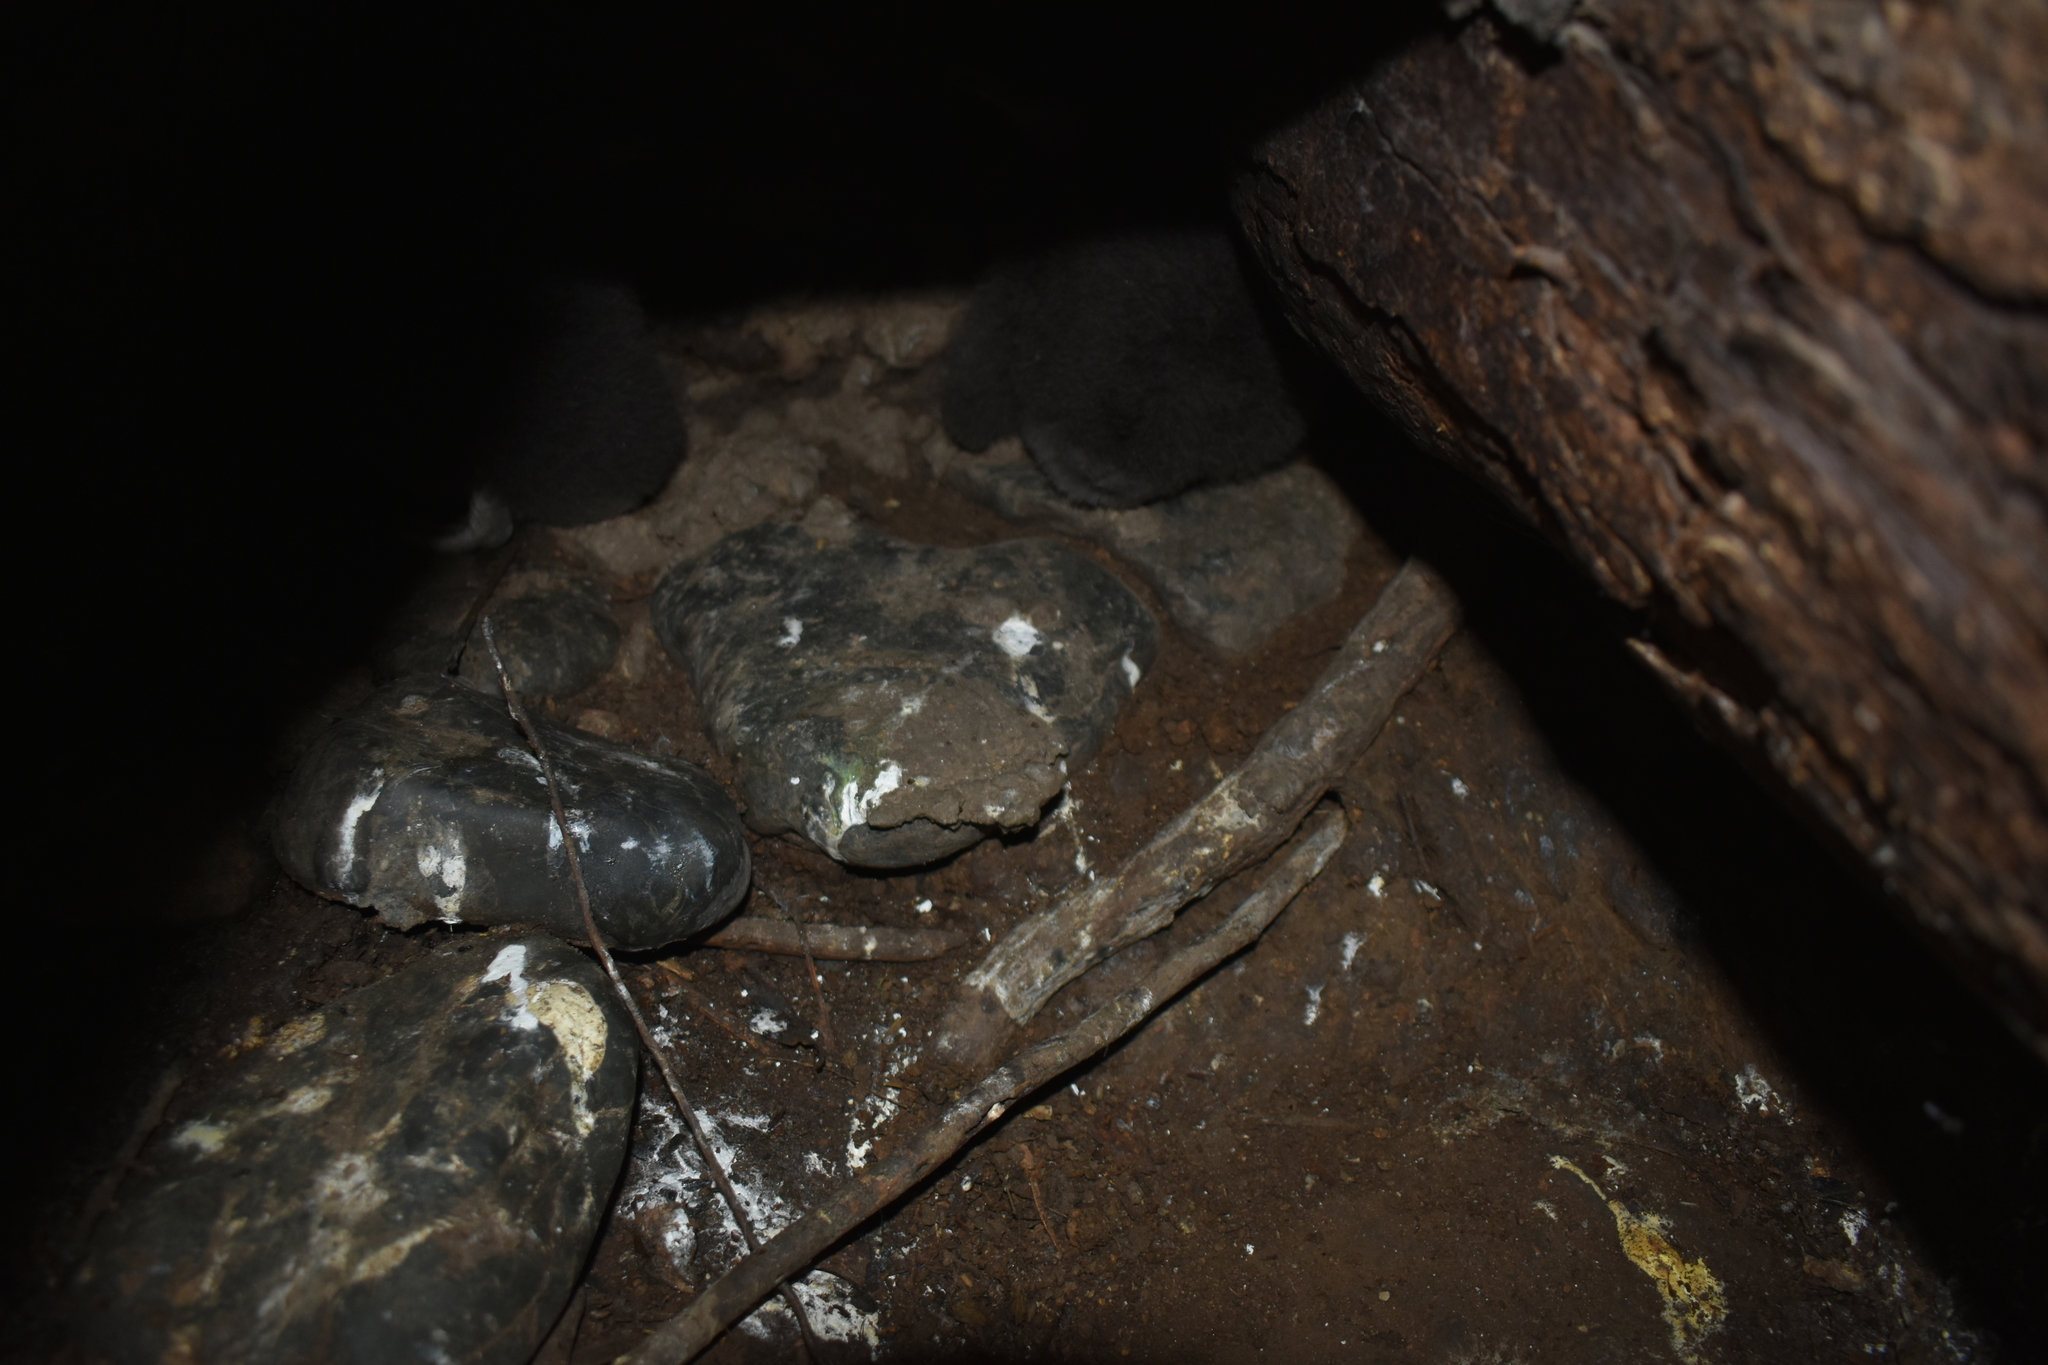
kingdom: Animalia
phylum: Chordata
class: Aves
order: Sphenisciformes
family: Spheniscidae
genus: Eudyptula
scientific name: Eudyptula minor
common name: Little penguin
